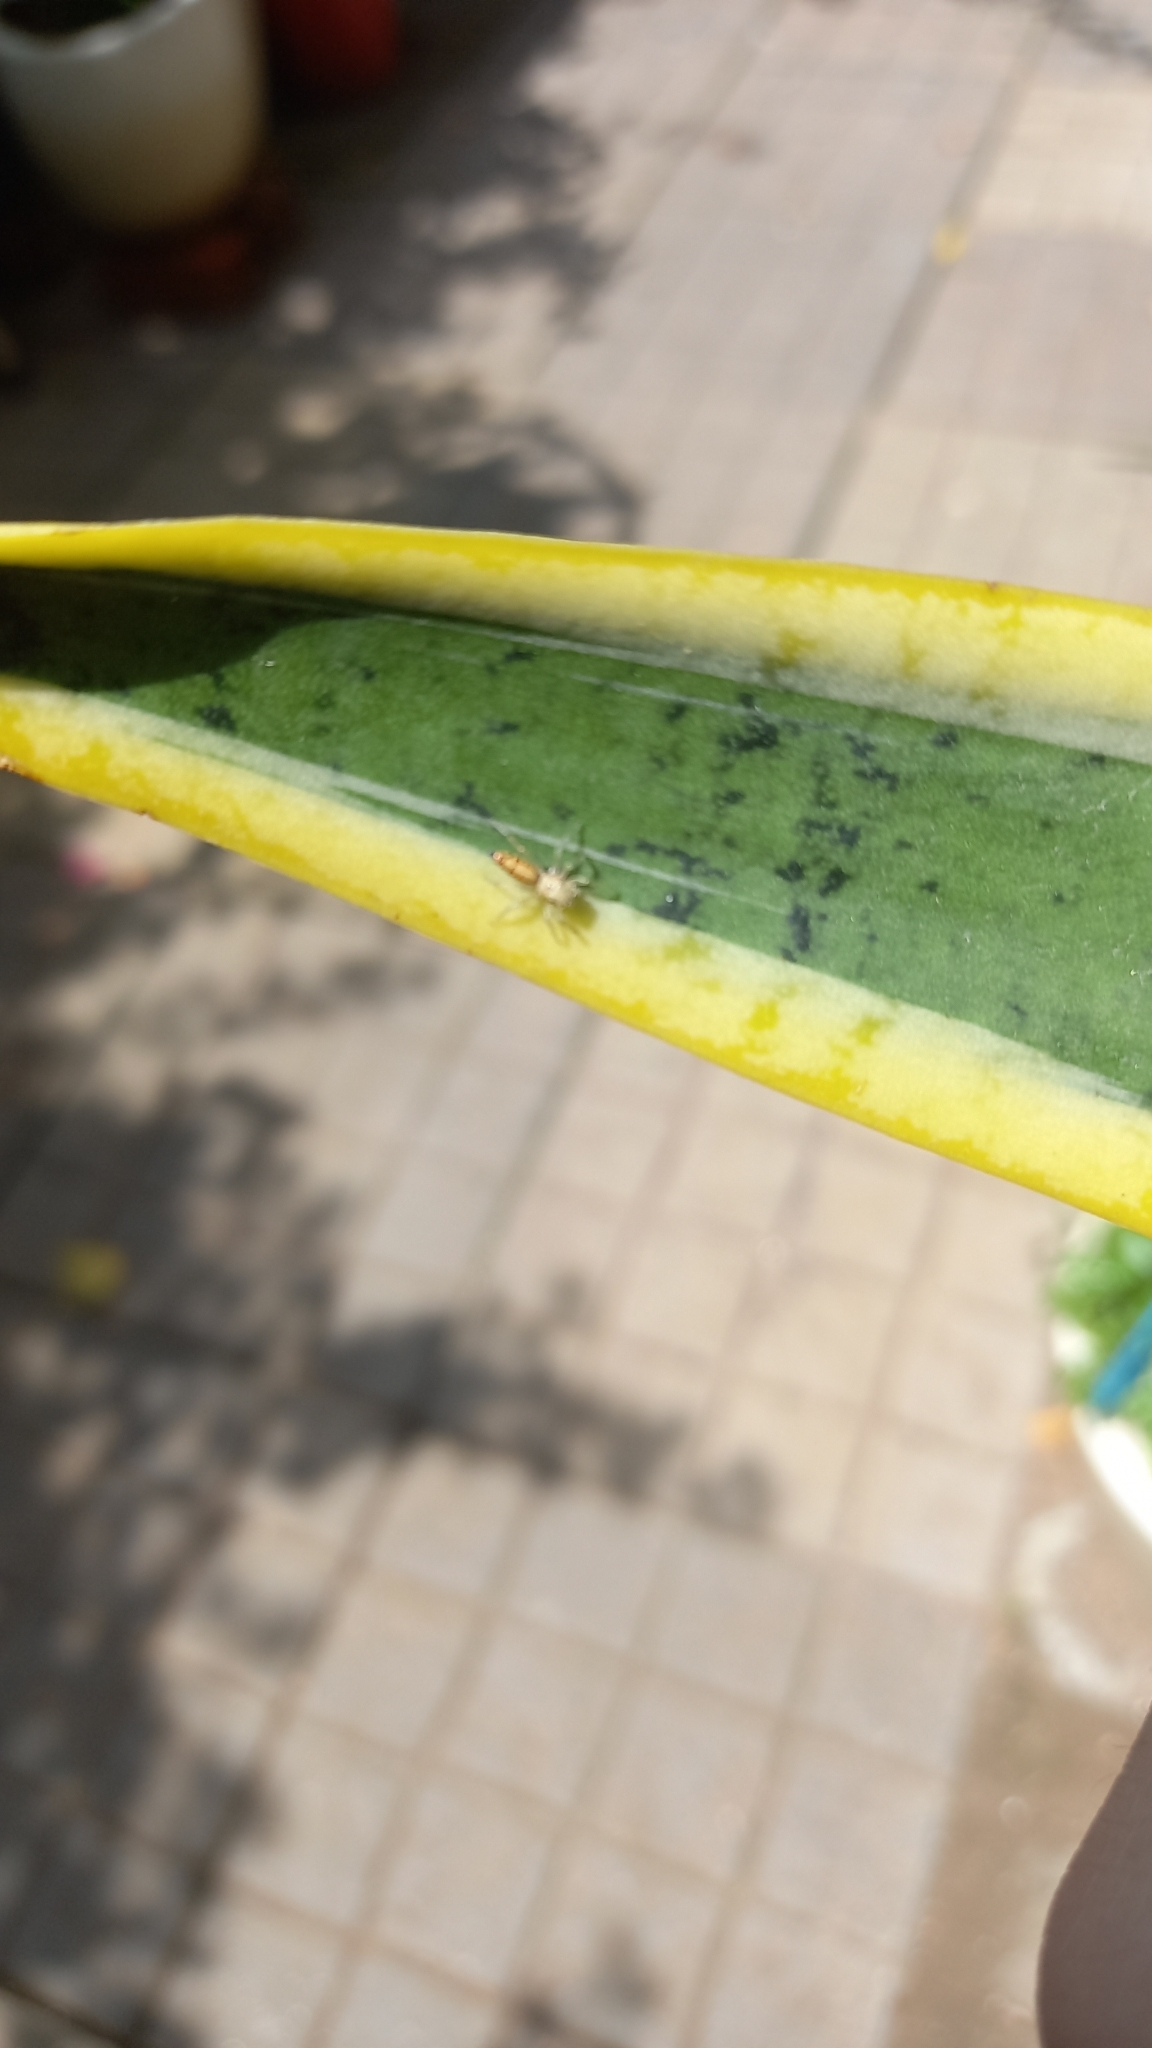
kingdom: Animalia
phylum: Arthropoda
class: Arachnida
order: Araneae
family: Salticidae
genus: Cosmophasis
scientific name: Cosmophasis lami
